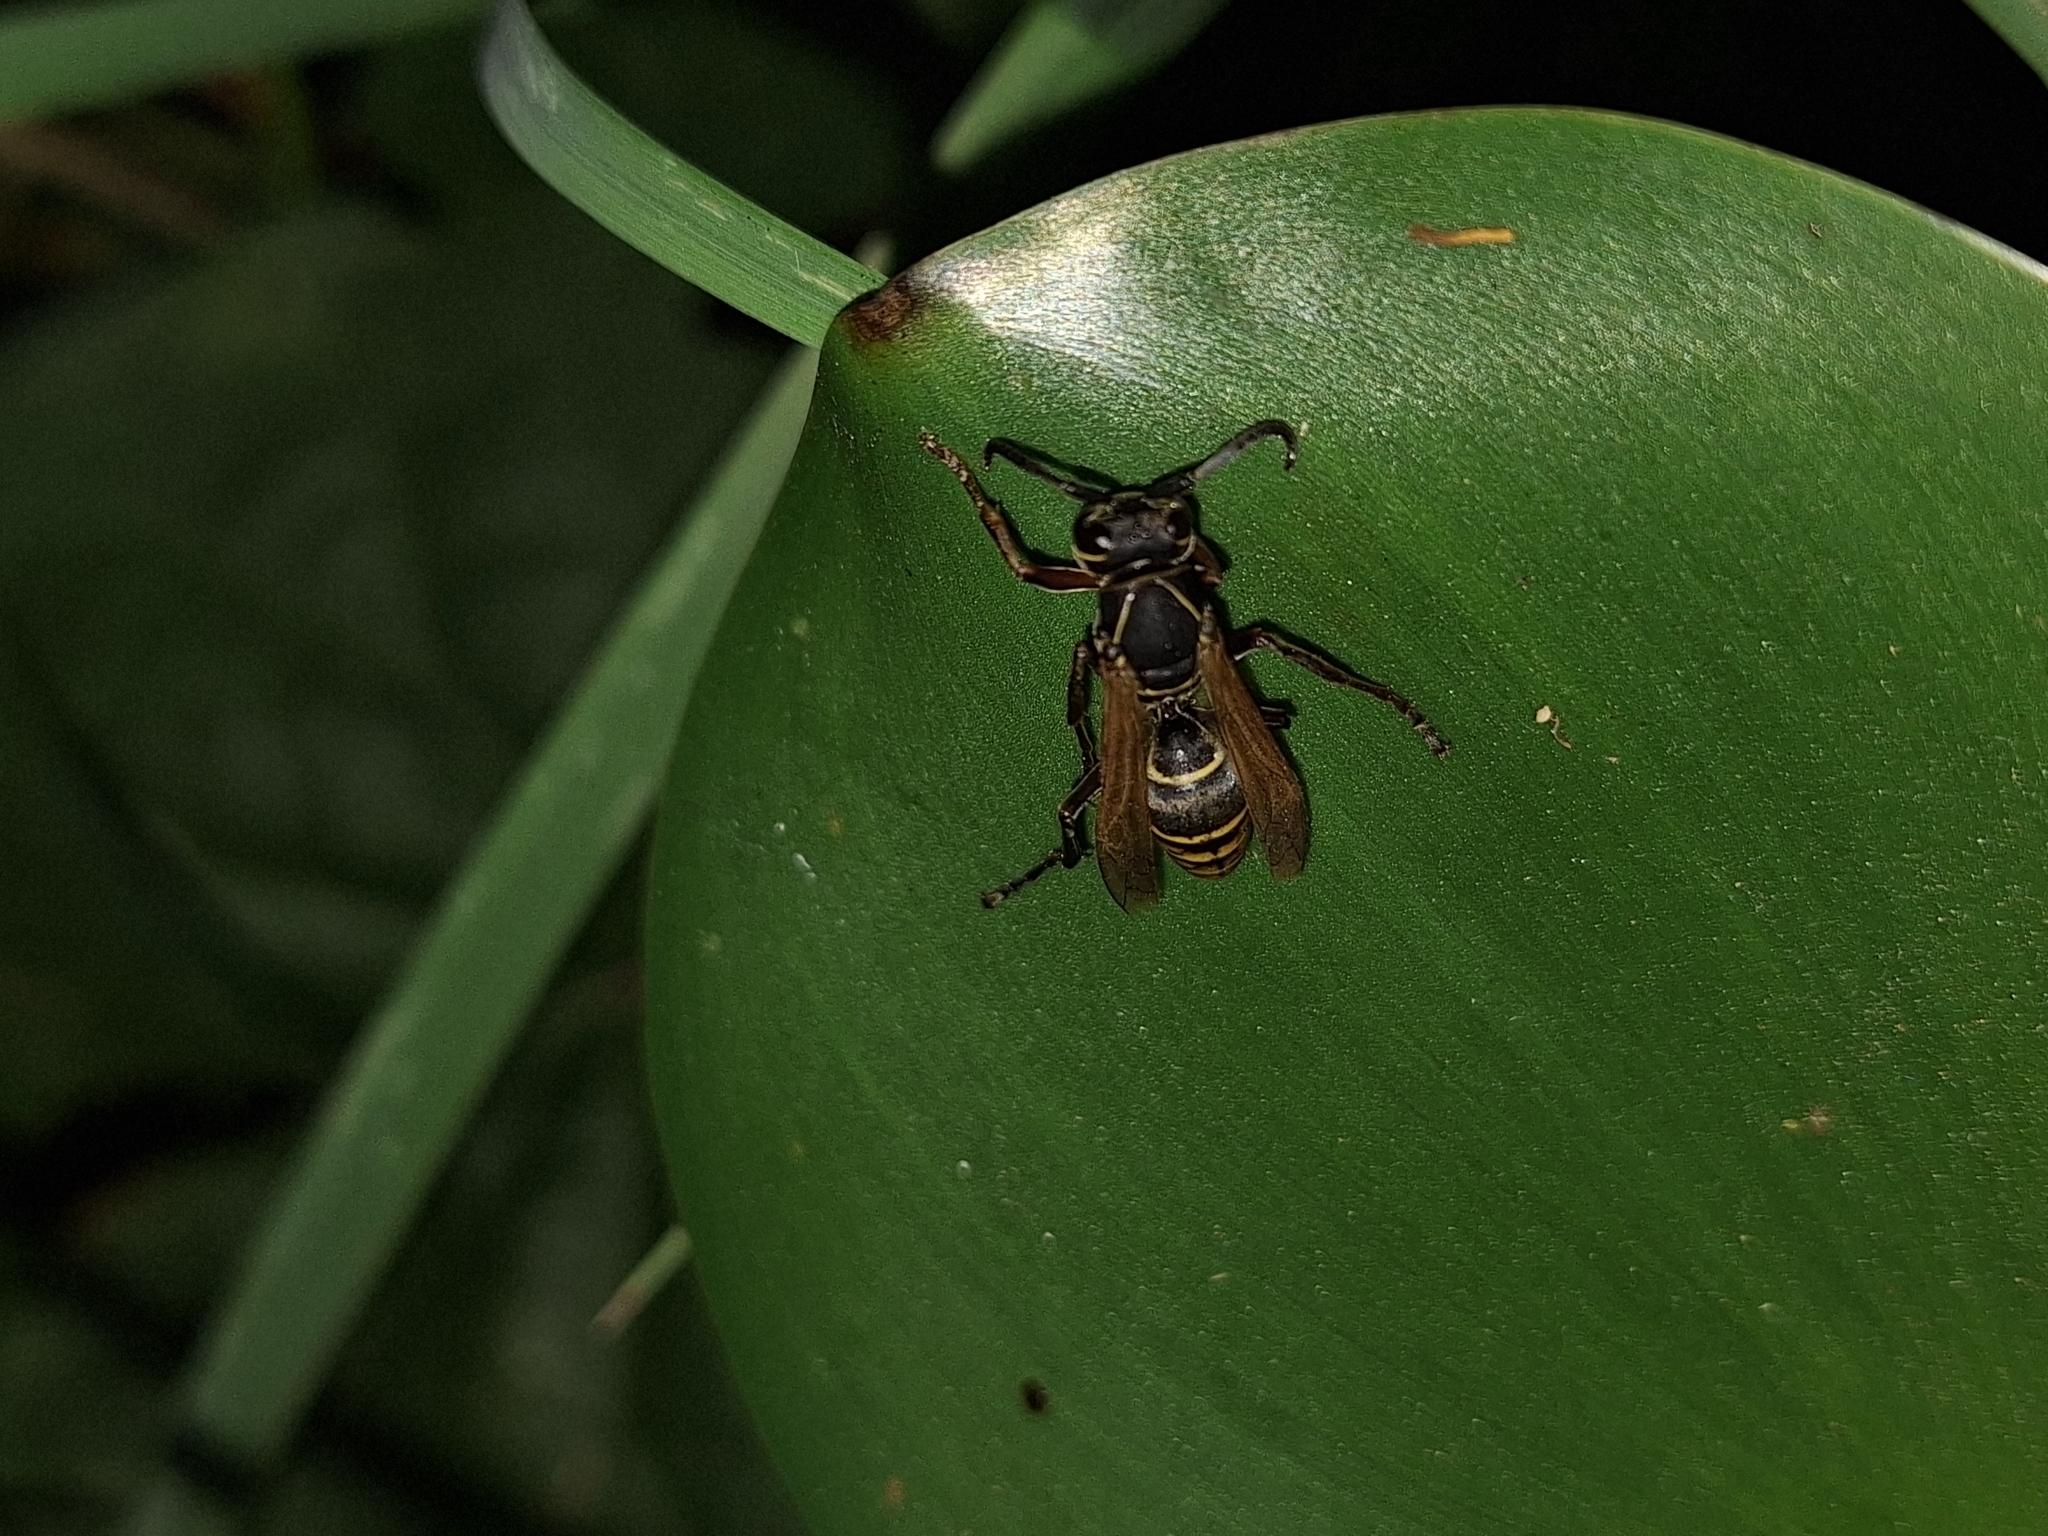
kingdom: Animalia
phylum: Arthropoda
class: Insecta
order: Hymenoptera
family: Eumenidae
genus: Polistes
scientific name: Polistes cinerascens
